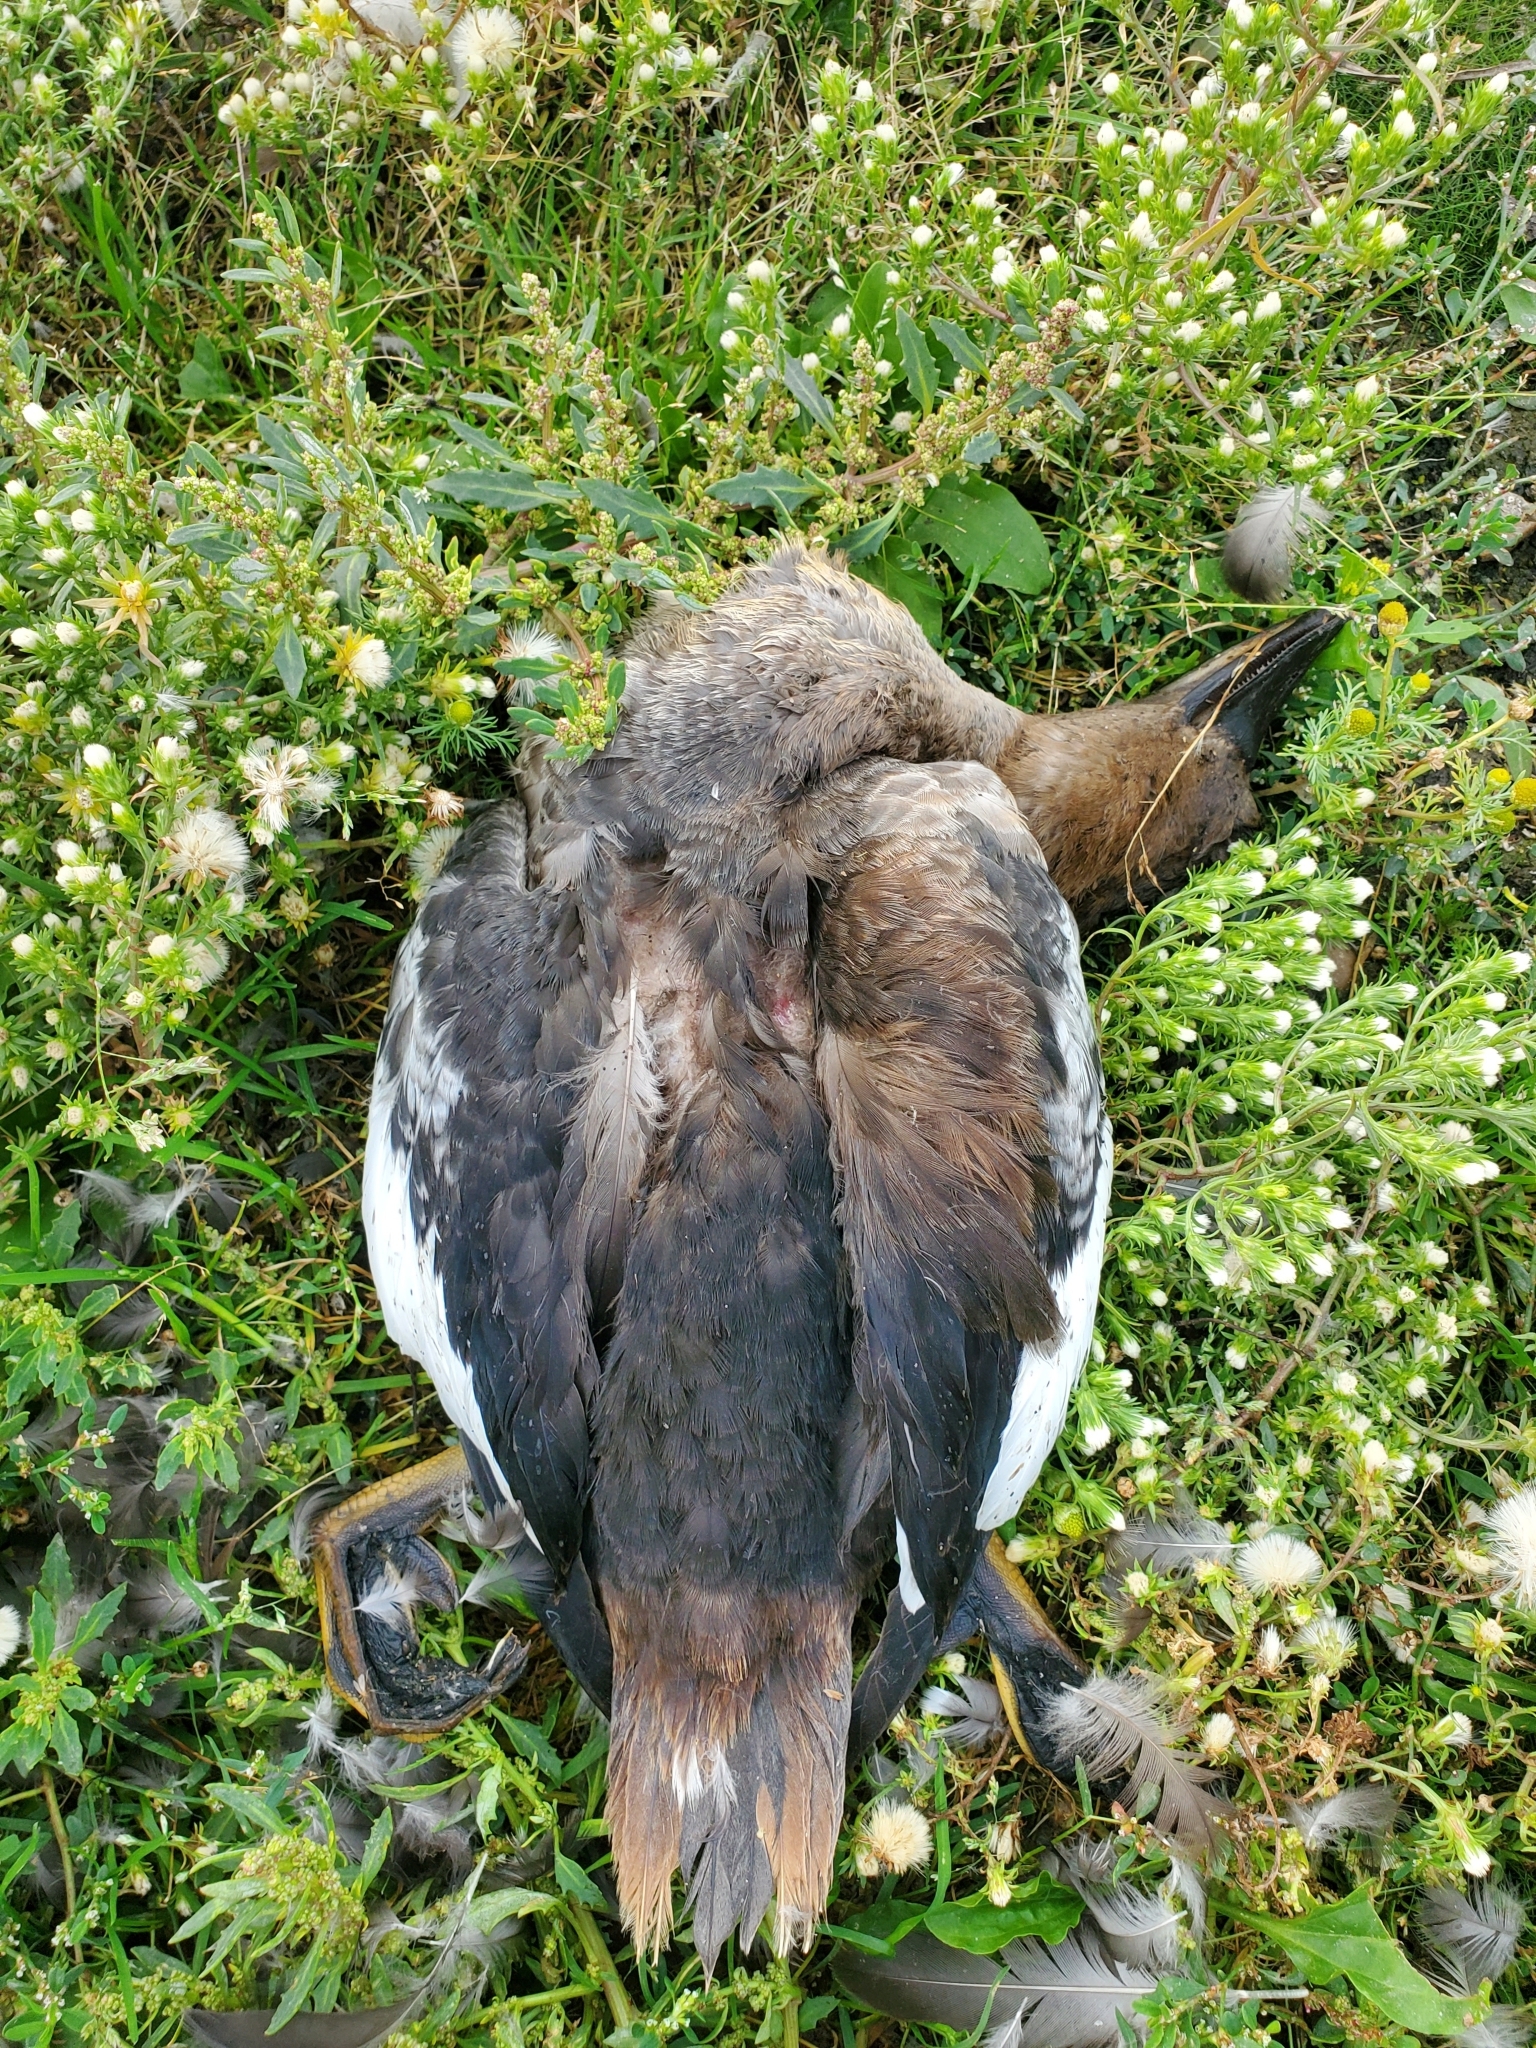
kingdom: Animalia
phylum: Arthropoda
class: Insecta
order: Psocodea
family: Trinotonidae
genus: Trinoton
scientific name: Trinoton querquedulae
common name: Louse
